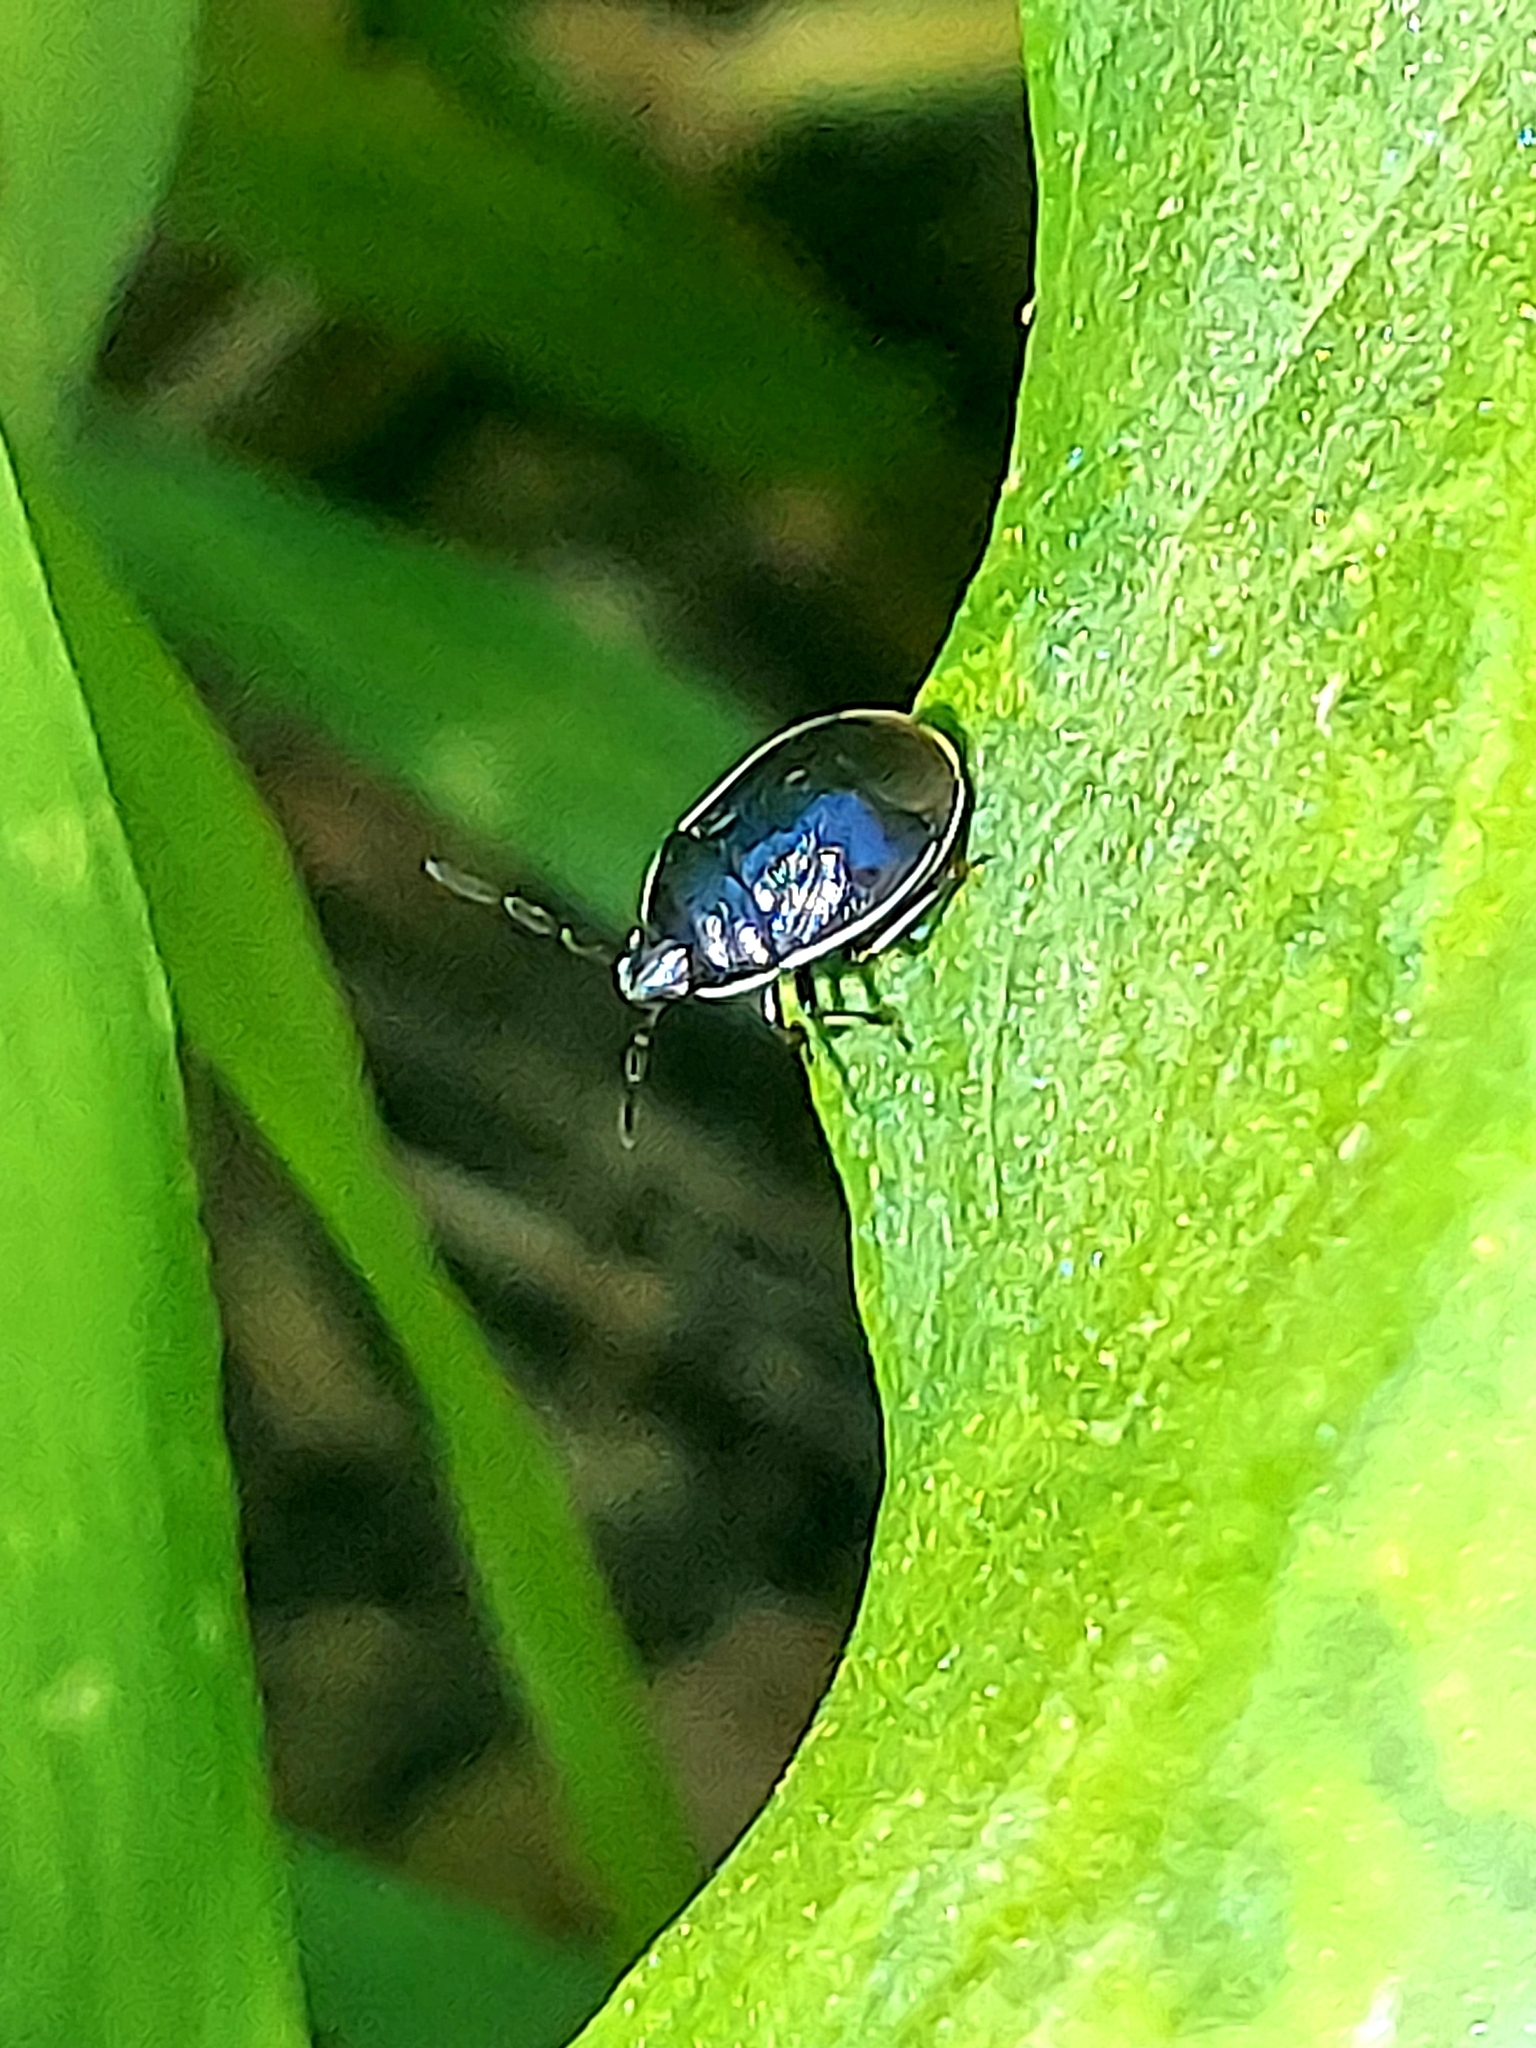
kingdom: Animalia
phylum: Arthropoda
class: Insecta
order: Hemiptera
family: Cydnidae
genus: Sehirus
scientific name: Sehirus cinctus
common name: White-margined burrower bug
